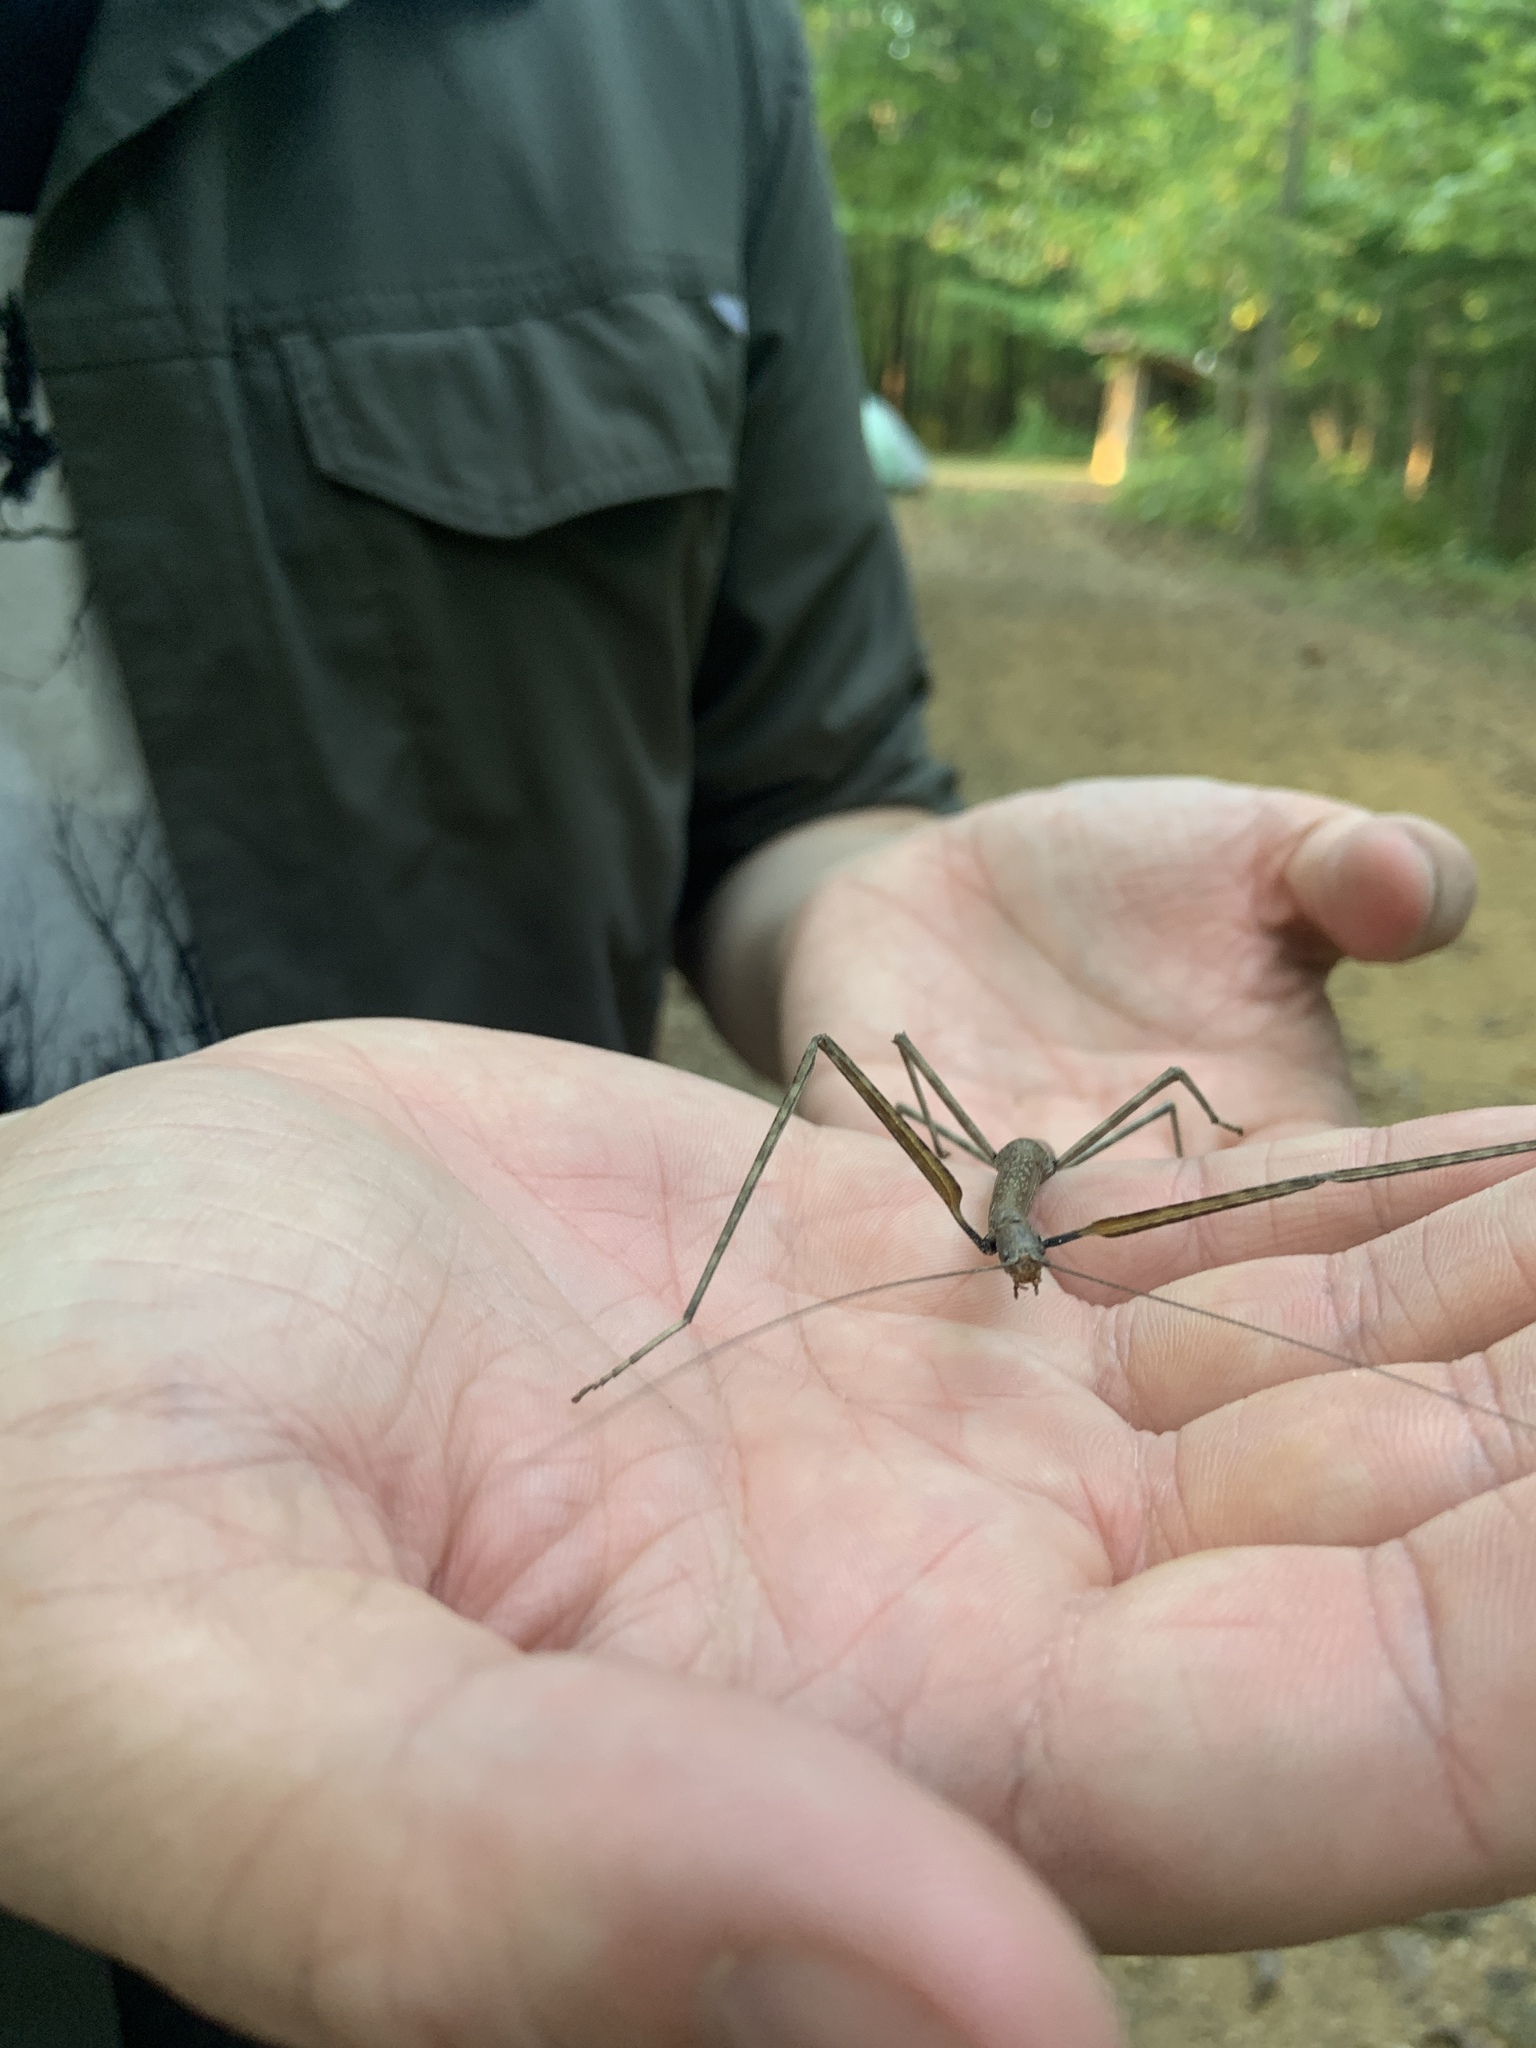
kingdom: Animalia
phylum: Arthropoda
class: Insecta
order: Phasmida
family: Diapheromeridae
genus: Diapheromera
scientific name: Diapheromera femorata
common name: Common american walkingstick
